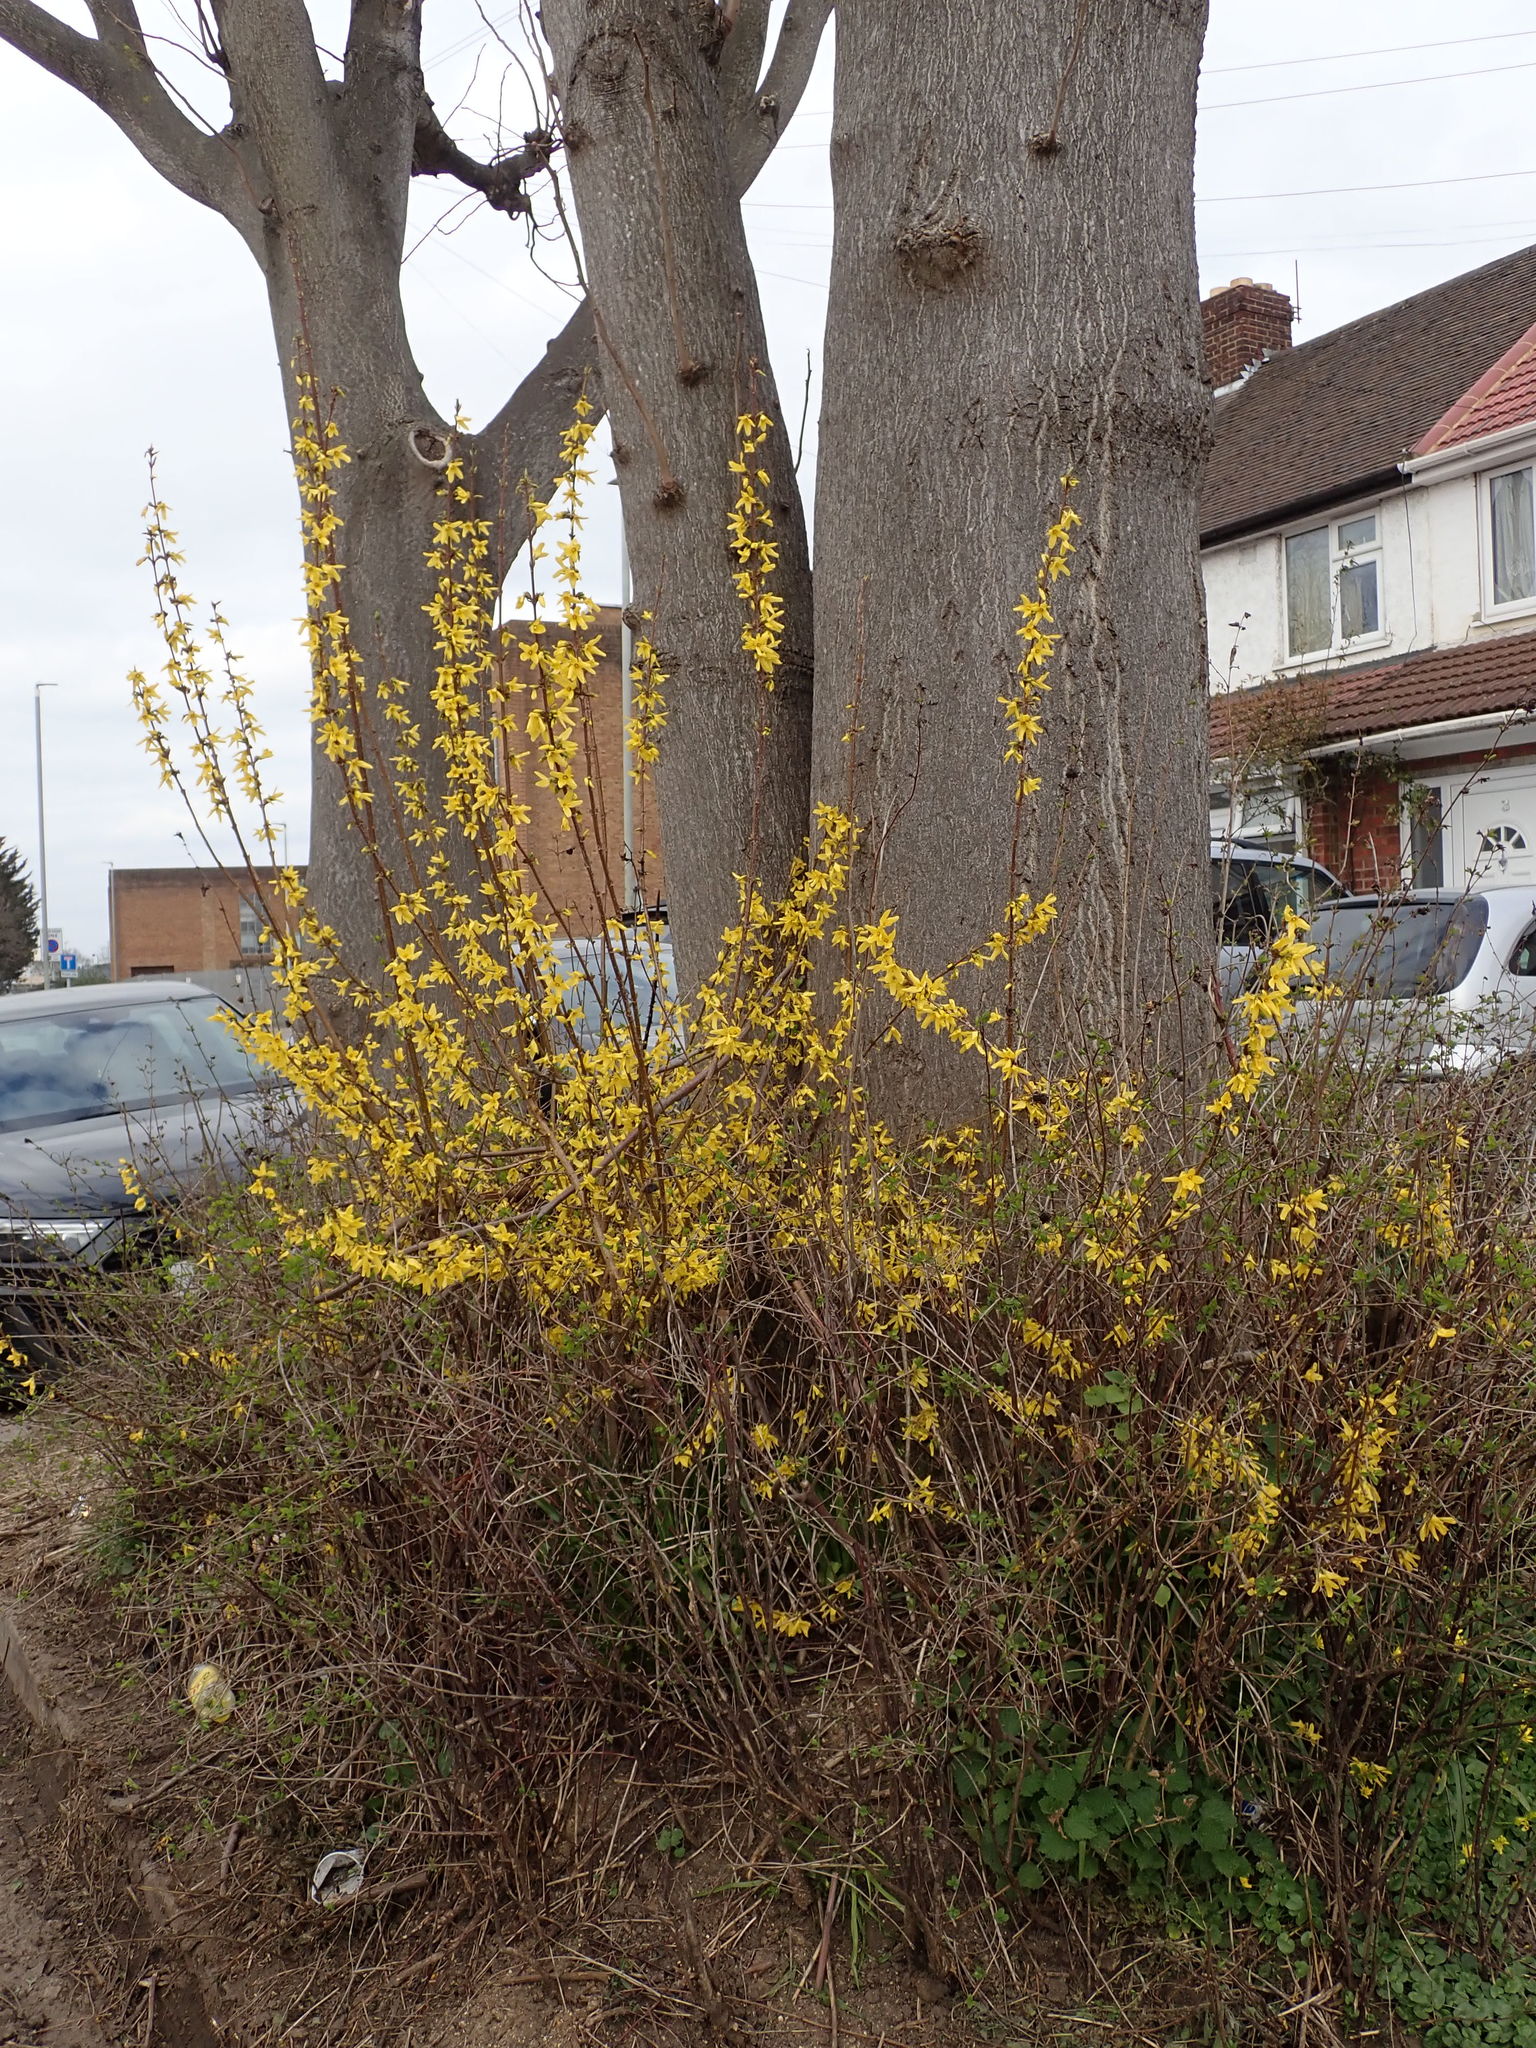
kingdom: Plantae
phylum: Tracheophyta
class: Magnoliopsida
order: Lamiales
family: Oleaceae
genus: Forsythia
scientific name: Forsythia intermedia
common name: Forsythia
